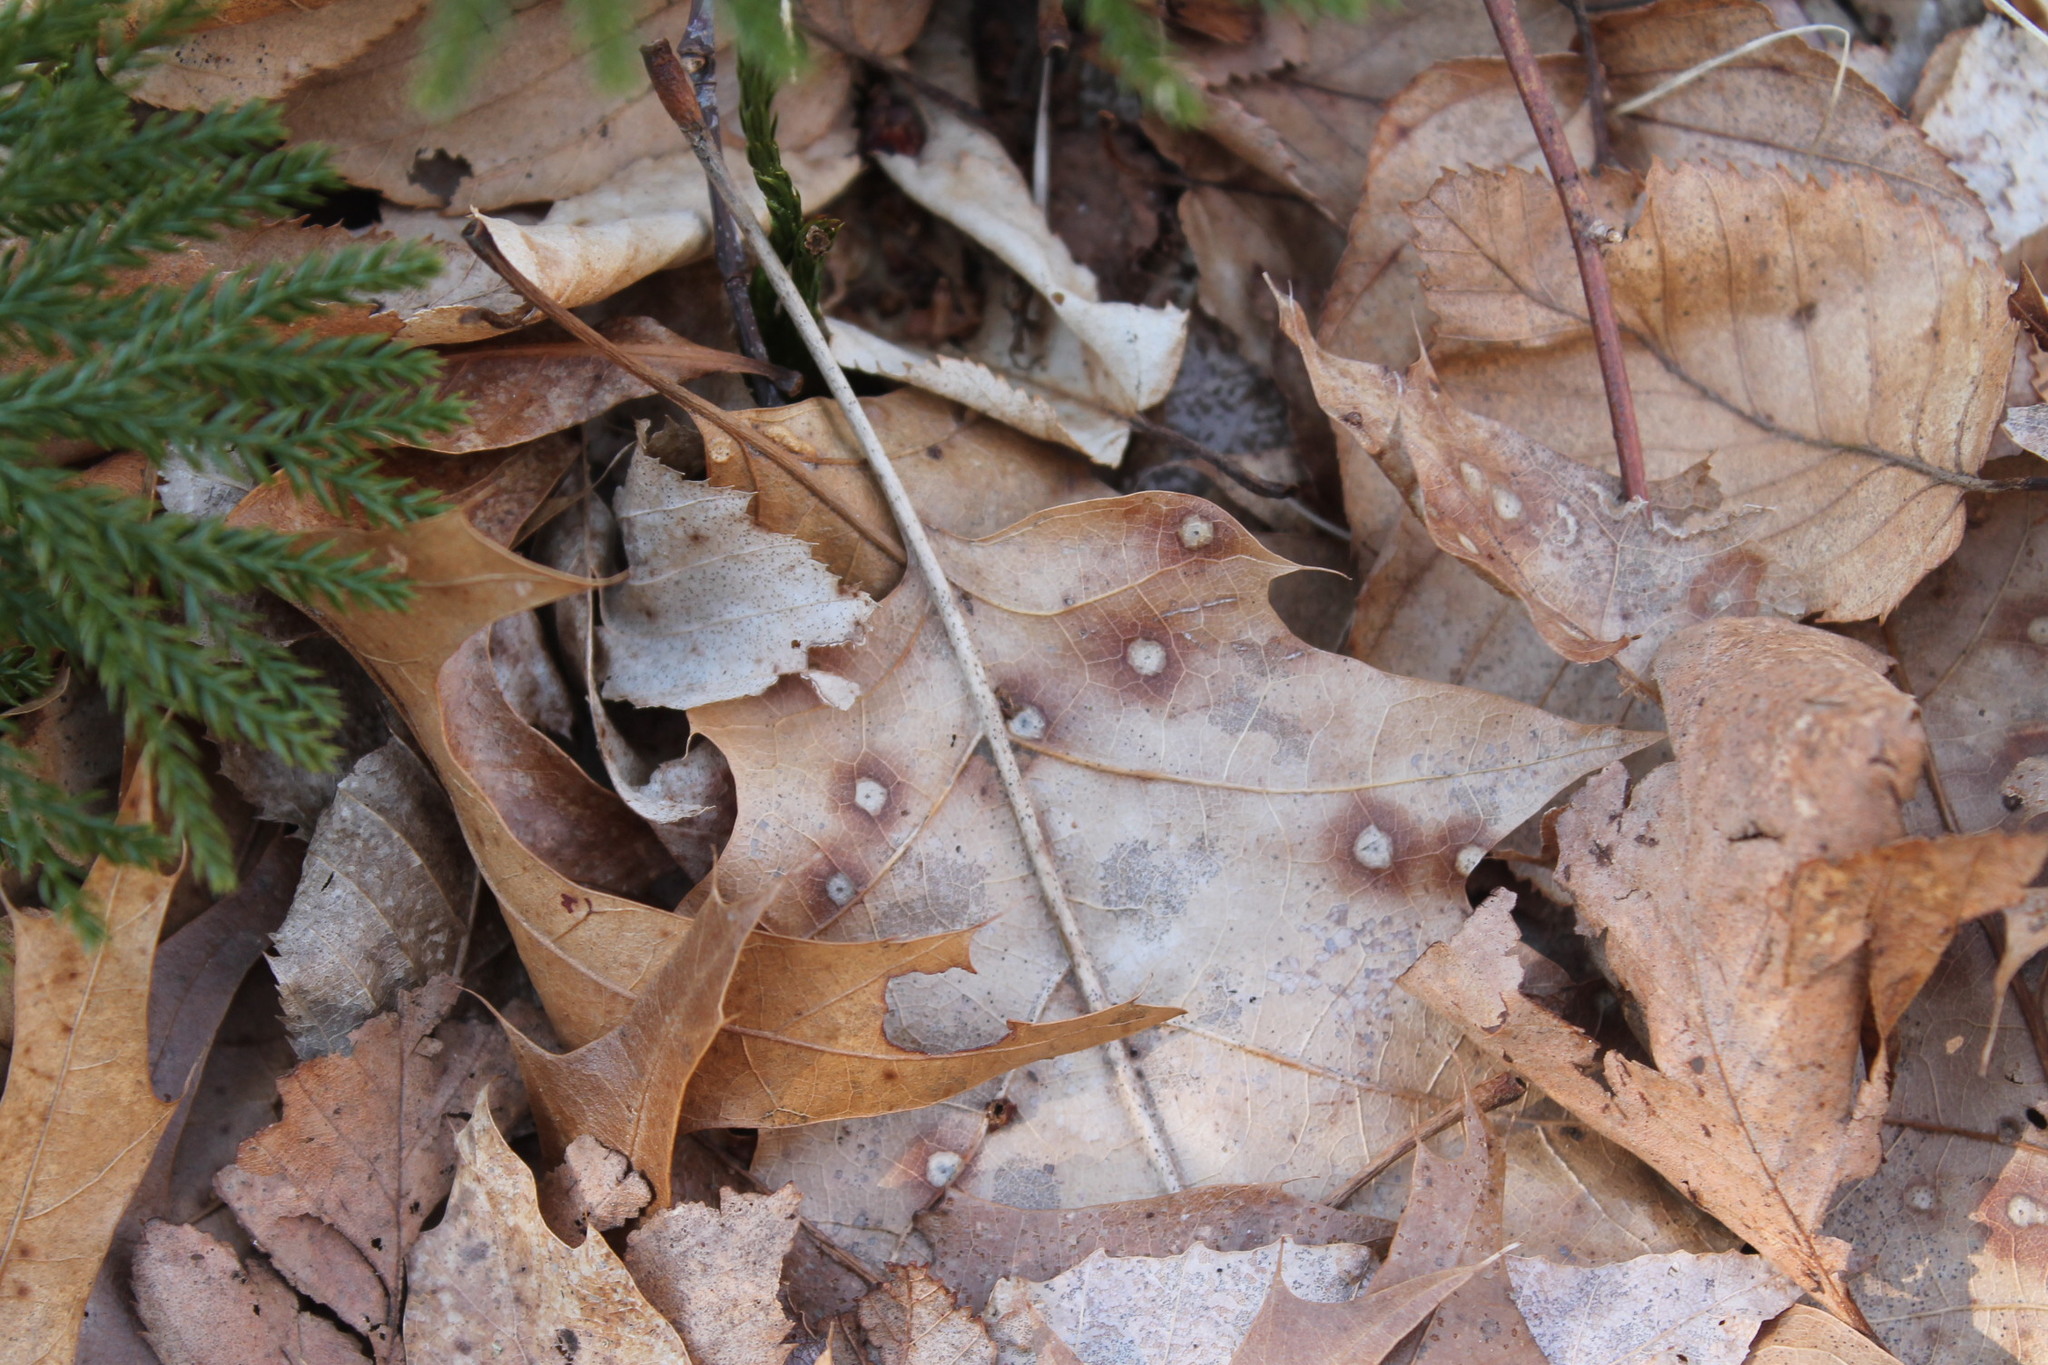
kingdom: Fungi
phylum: Ascomycota
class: Sordariomycetes
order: Diaporthales
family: Melanconidaceae
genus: Dicarpella
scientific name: Dicarpella dryina
